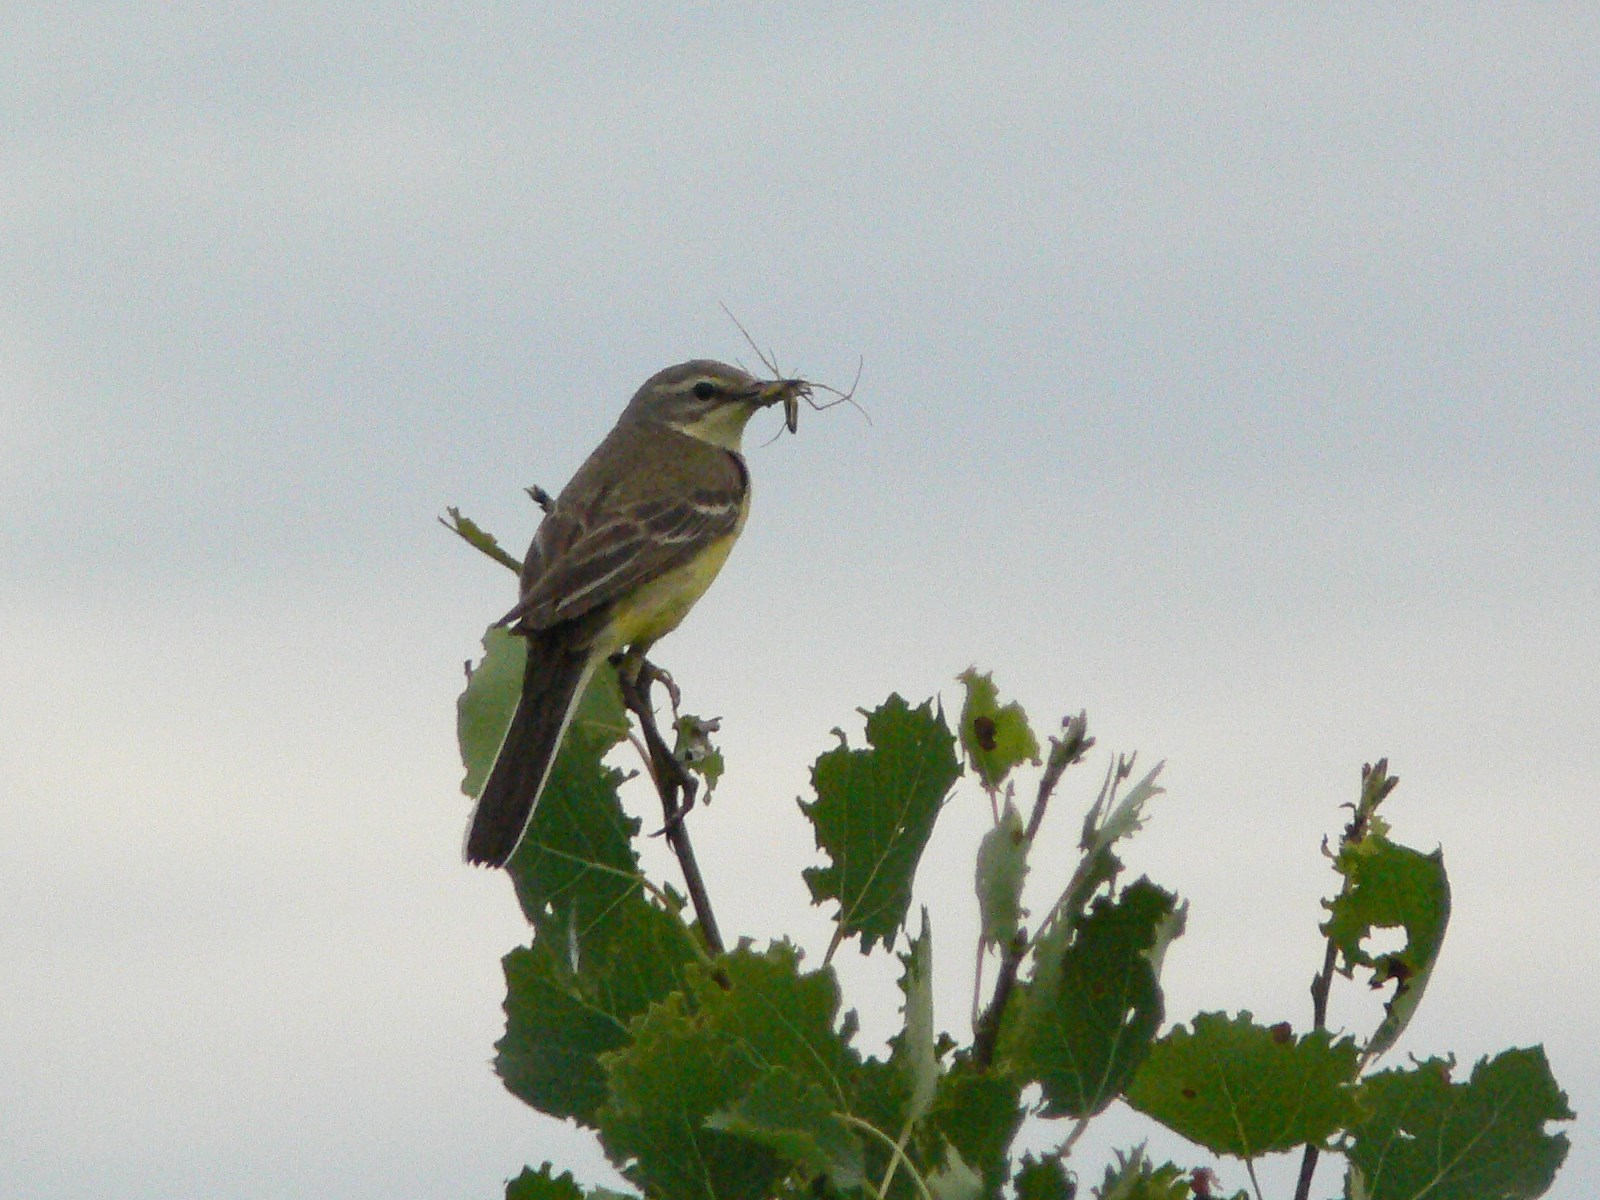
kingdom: Animalia
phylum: Chordata
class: Aves
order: Passeriformes
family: Motacillidae
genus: Motacilla
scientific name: Motacilla flava
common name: Western yellow wagtail
